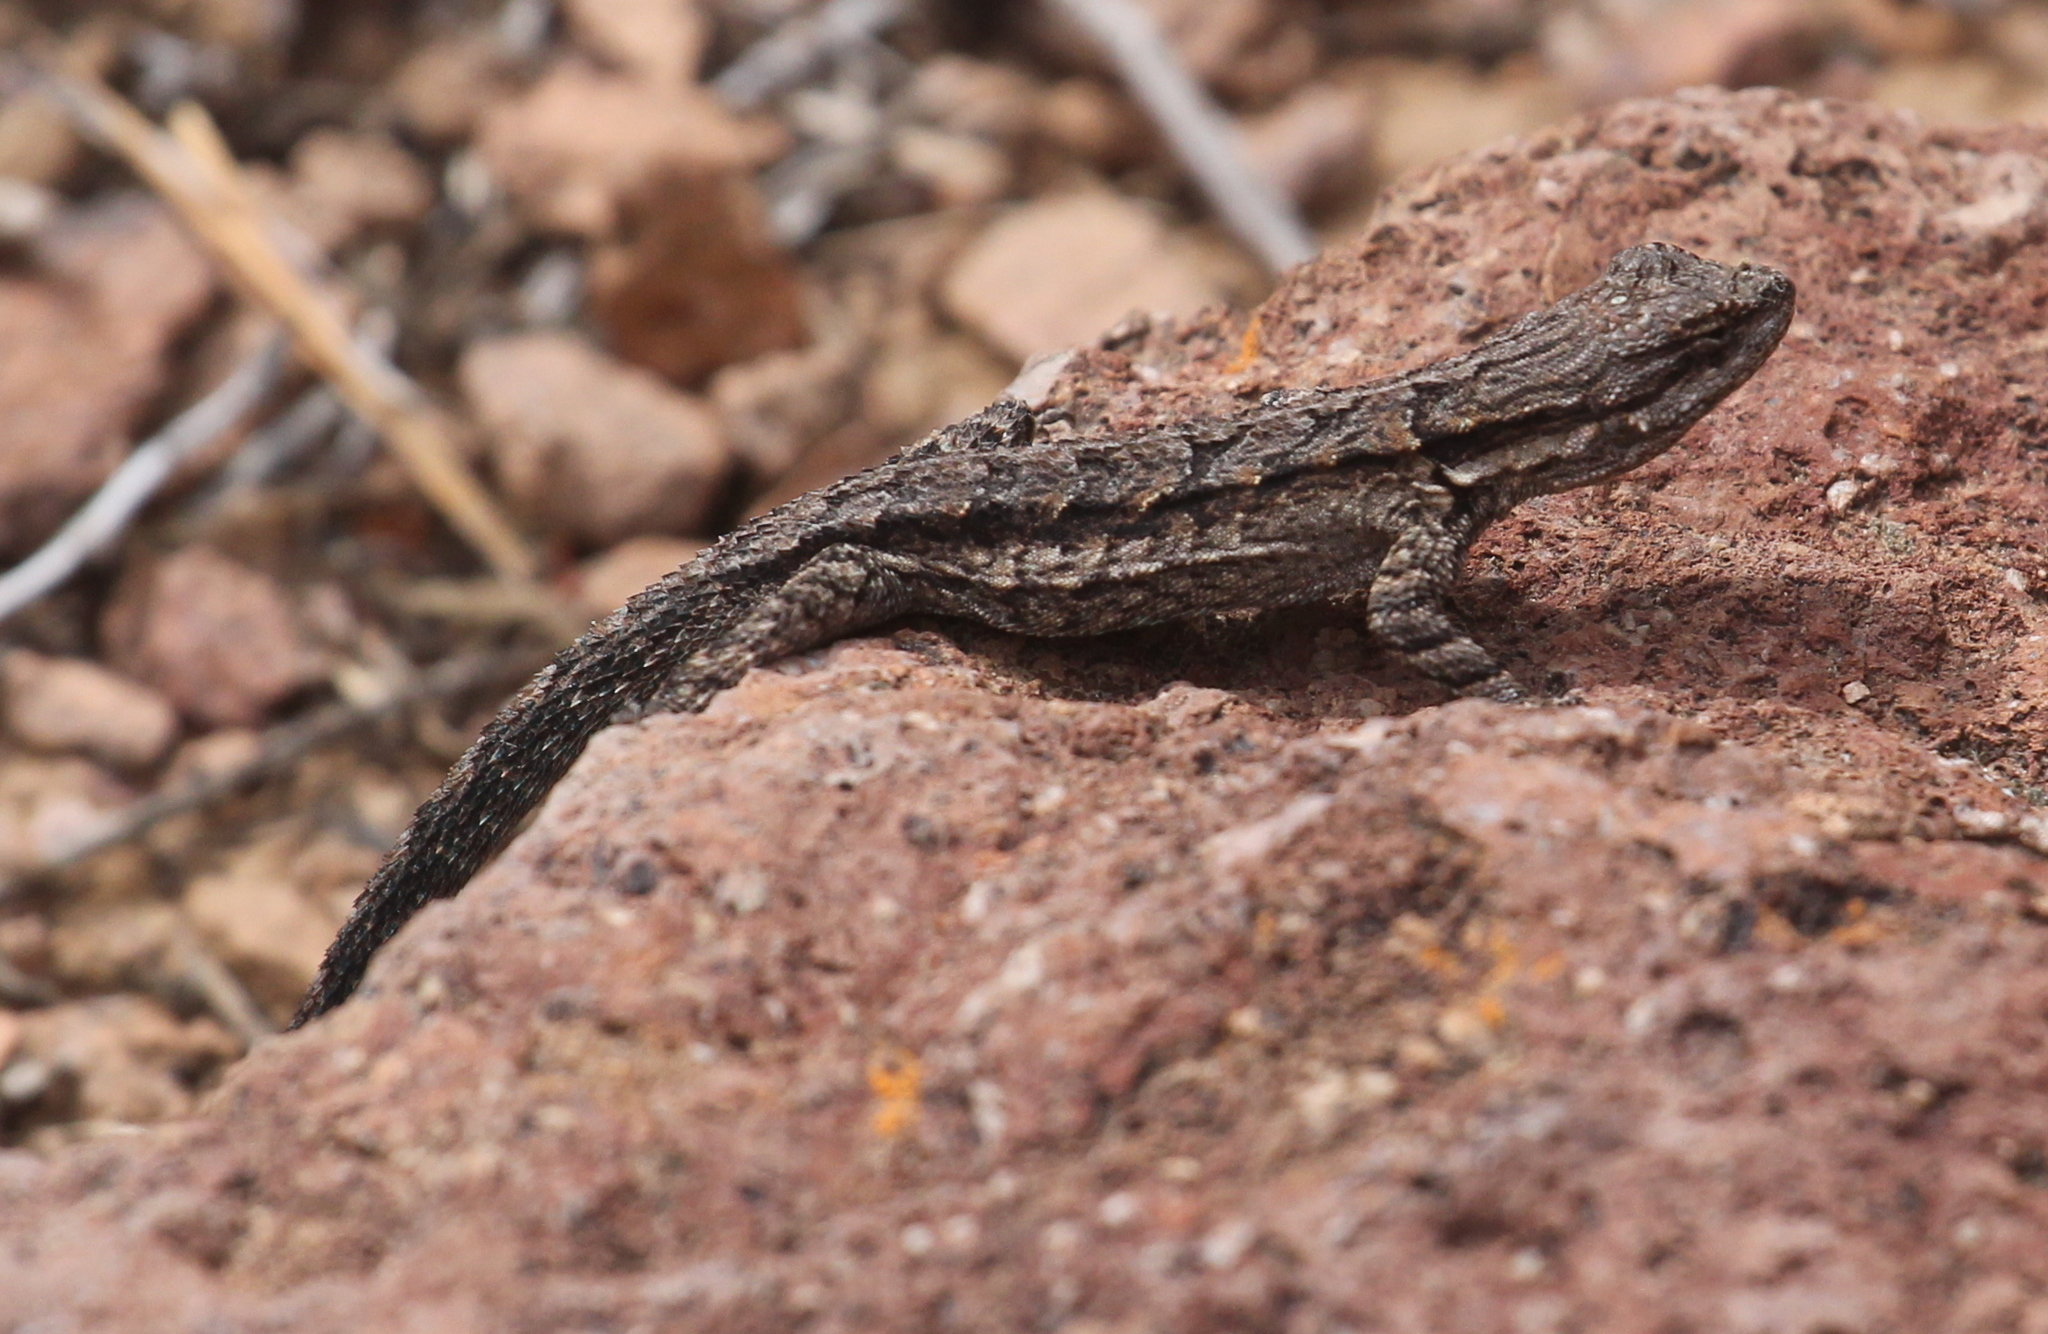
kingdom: Animalia
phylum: Chordata
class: Squamata
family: Phrynosomatidae
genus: Urosaurus
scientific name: Urosaurus ornatus
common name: Ornate tree lizard
